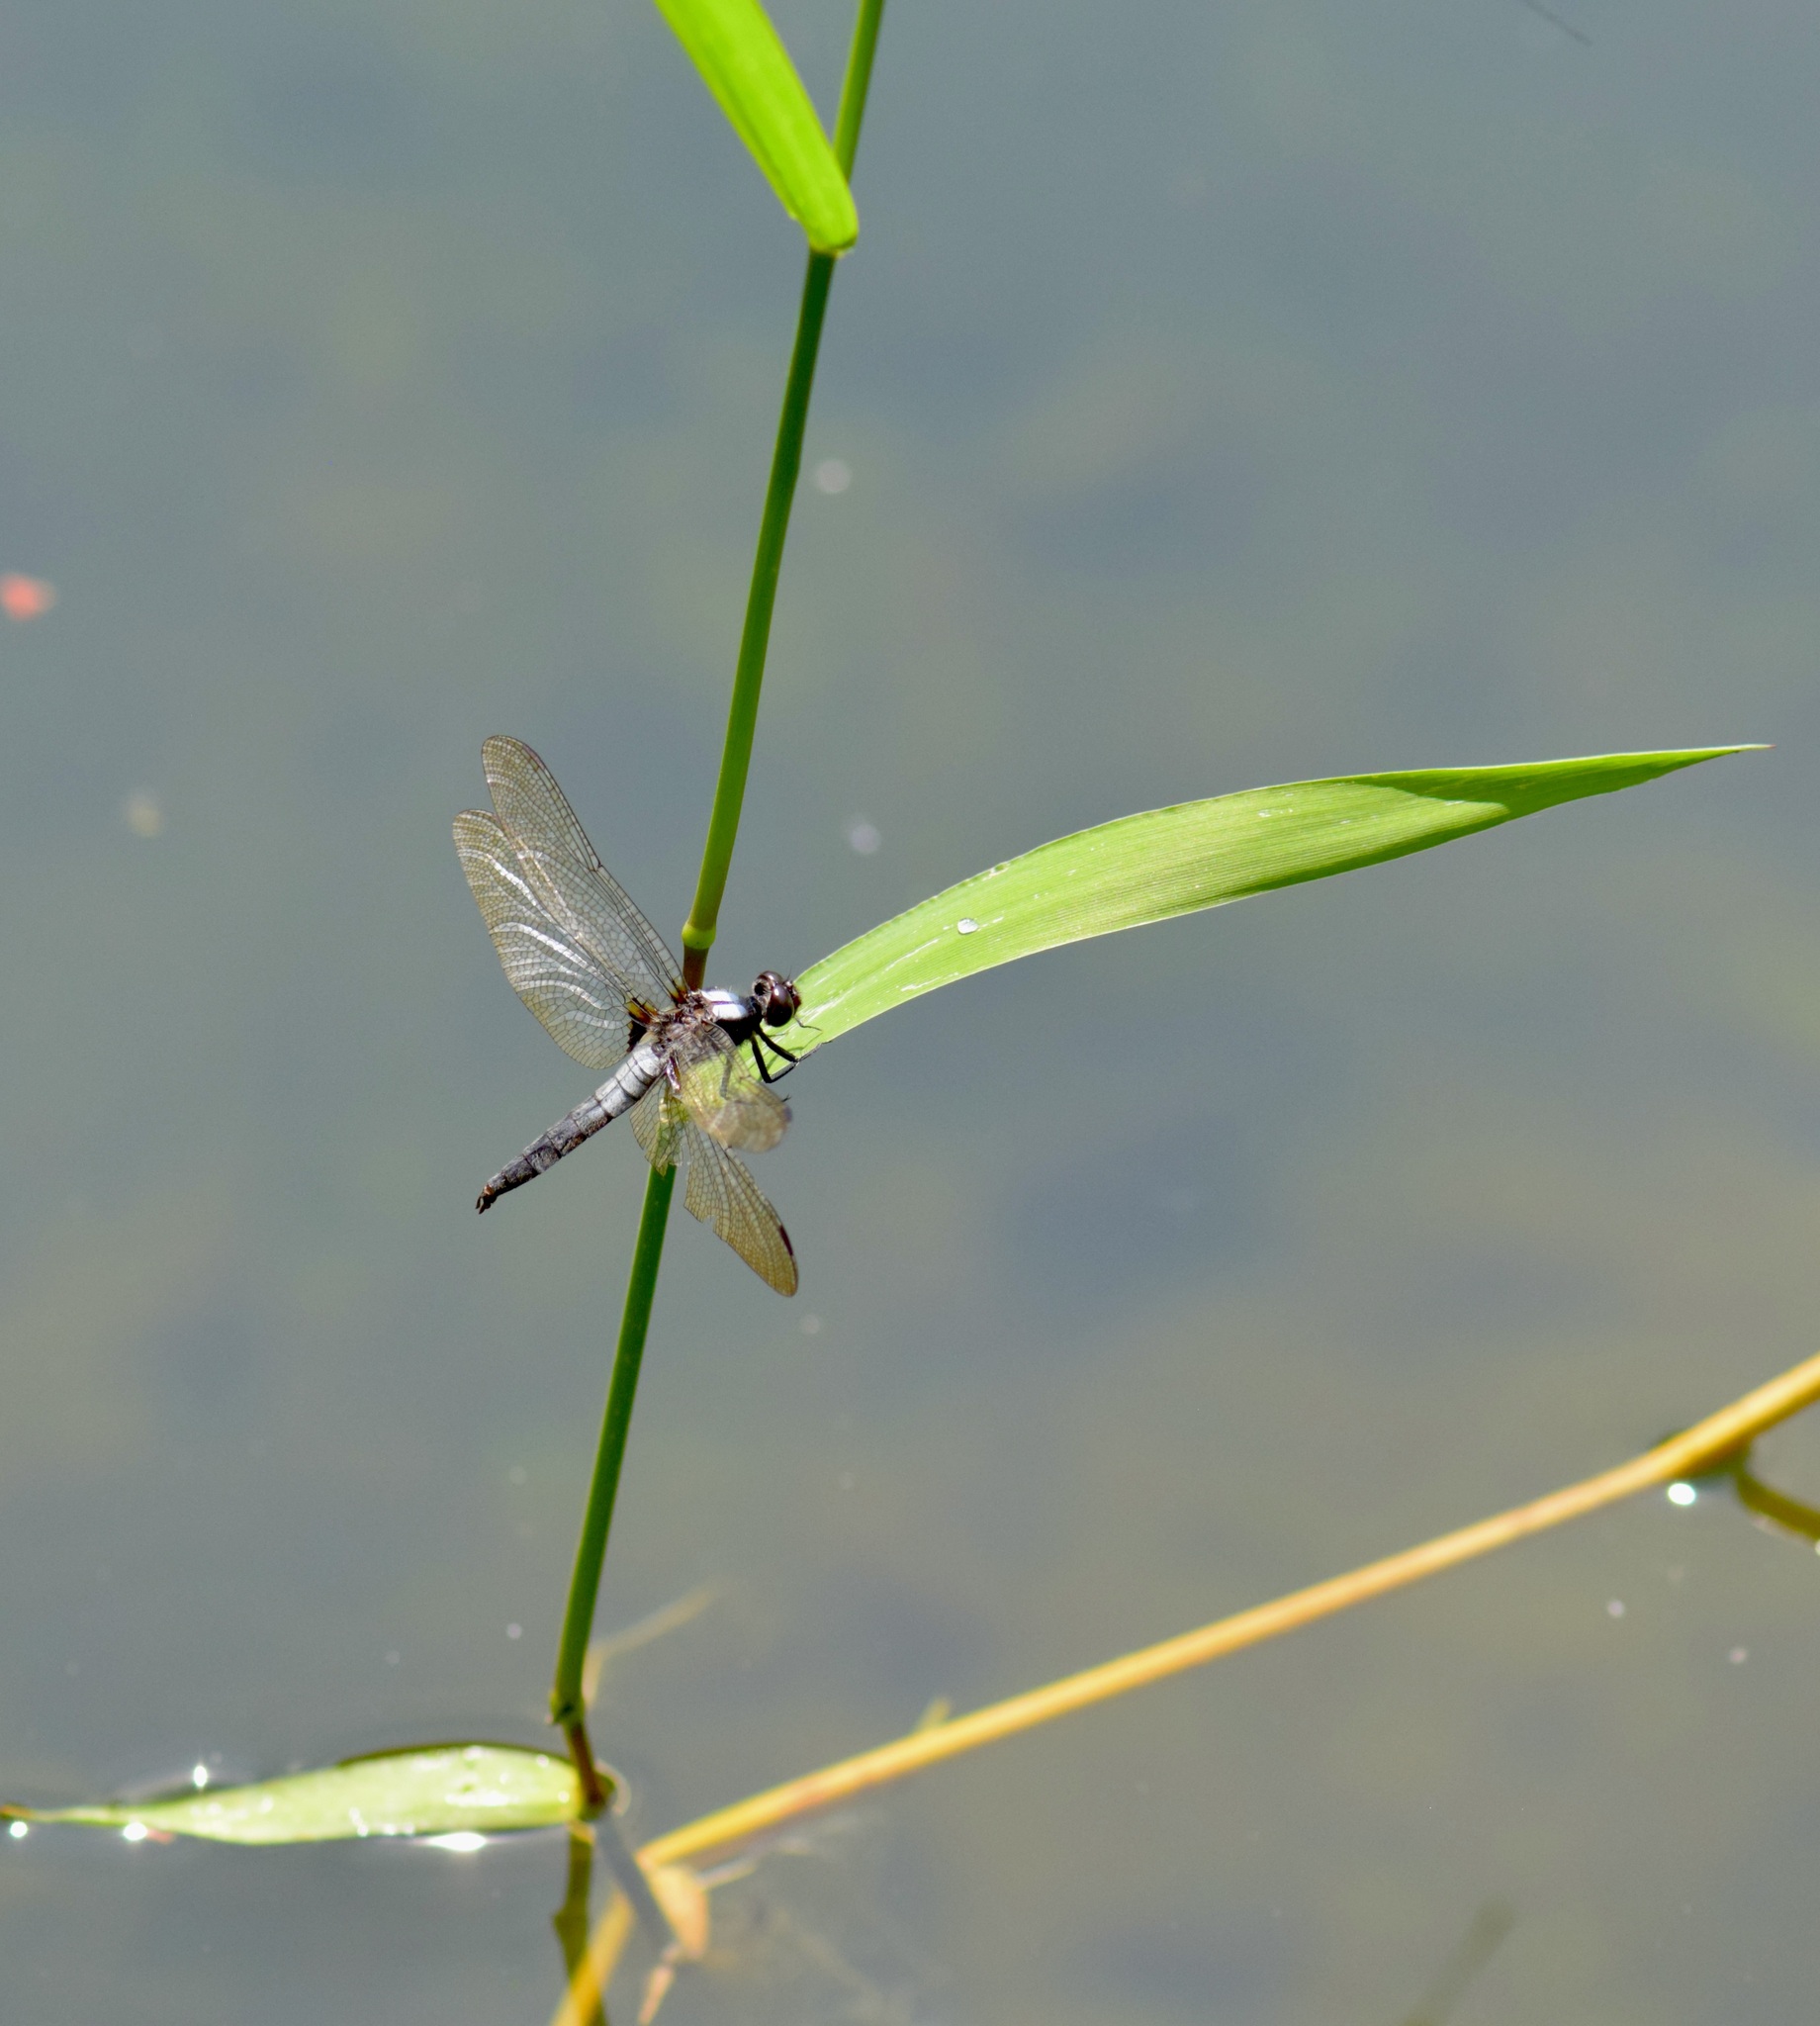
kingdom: Animalia
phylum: Arthropoda
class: Insecta
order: Odonata
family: Libellulidae
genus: Ladona
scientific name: Ladona julia
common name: Chalk-fronted corporal
